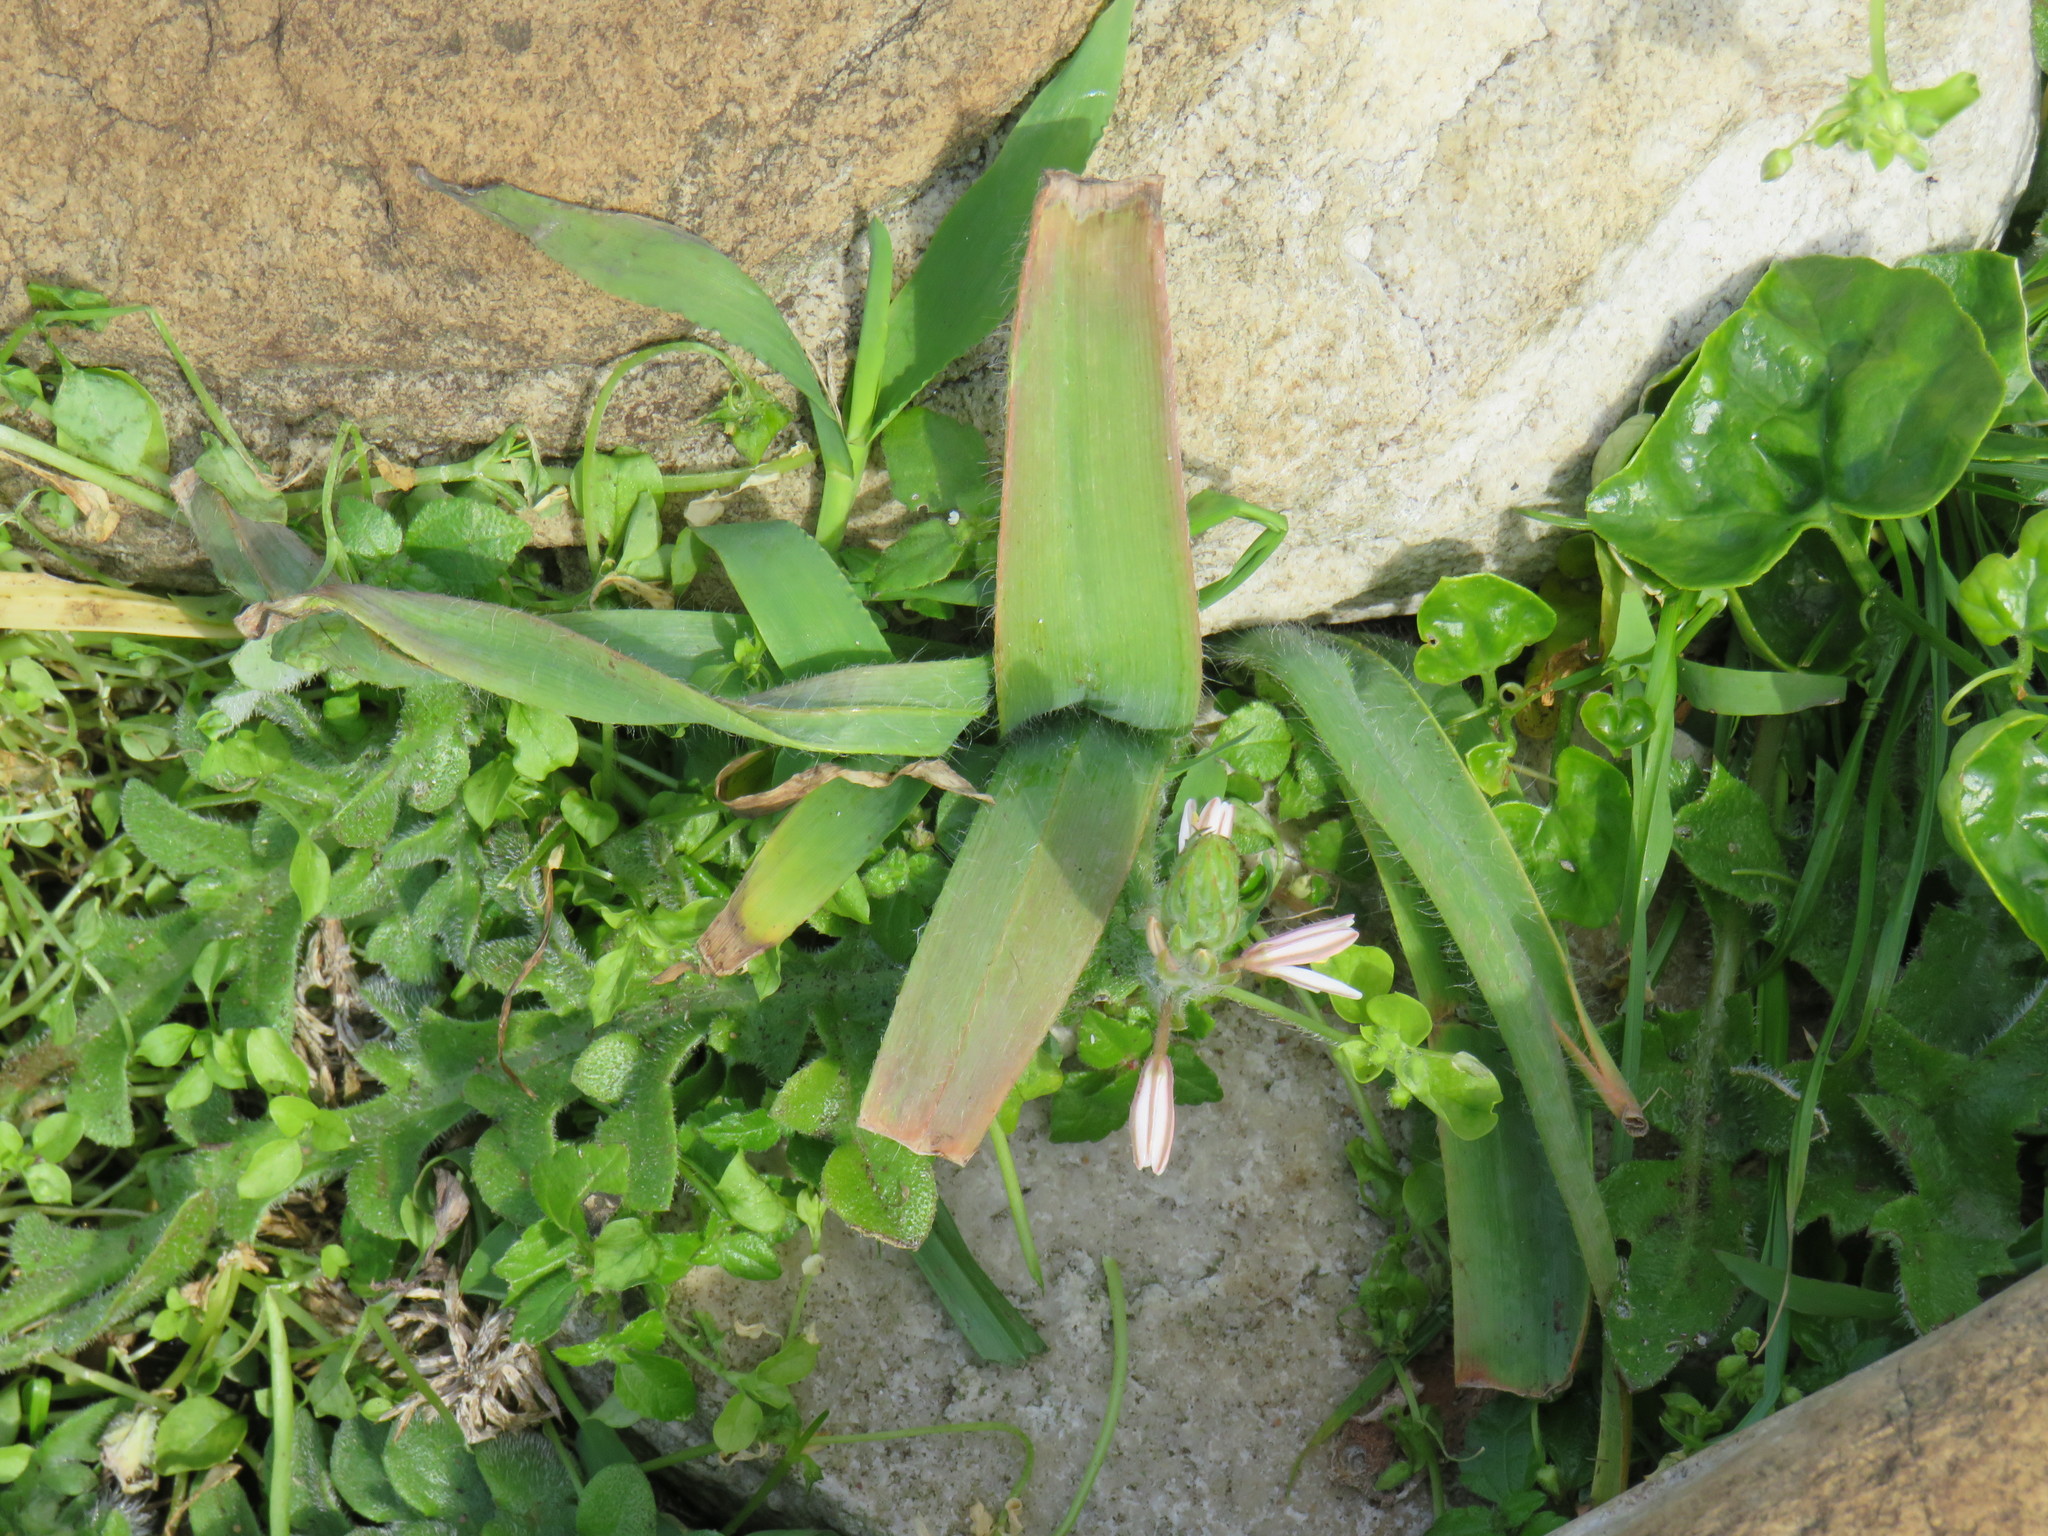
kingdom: Plantae
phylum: Tracheophyta
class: Liliopsida
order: Asparagales
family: Asphodelaceae
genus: Trachyandra
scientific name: Trachyandra ciliata
